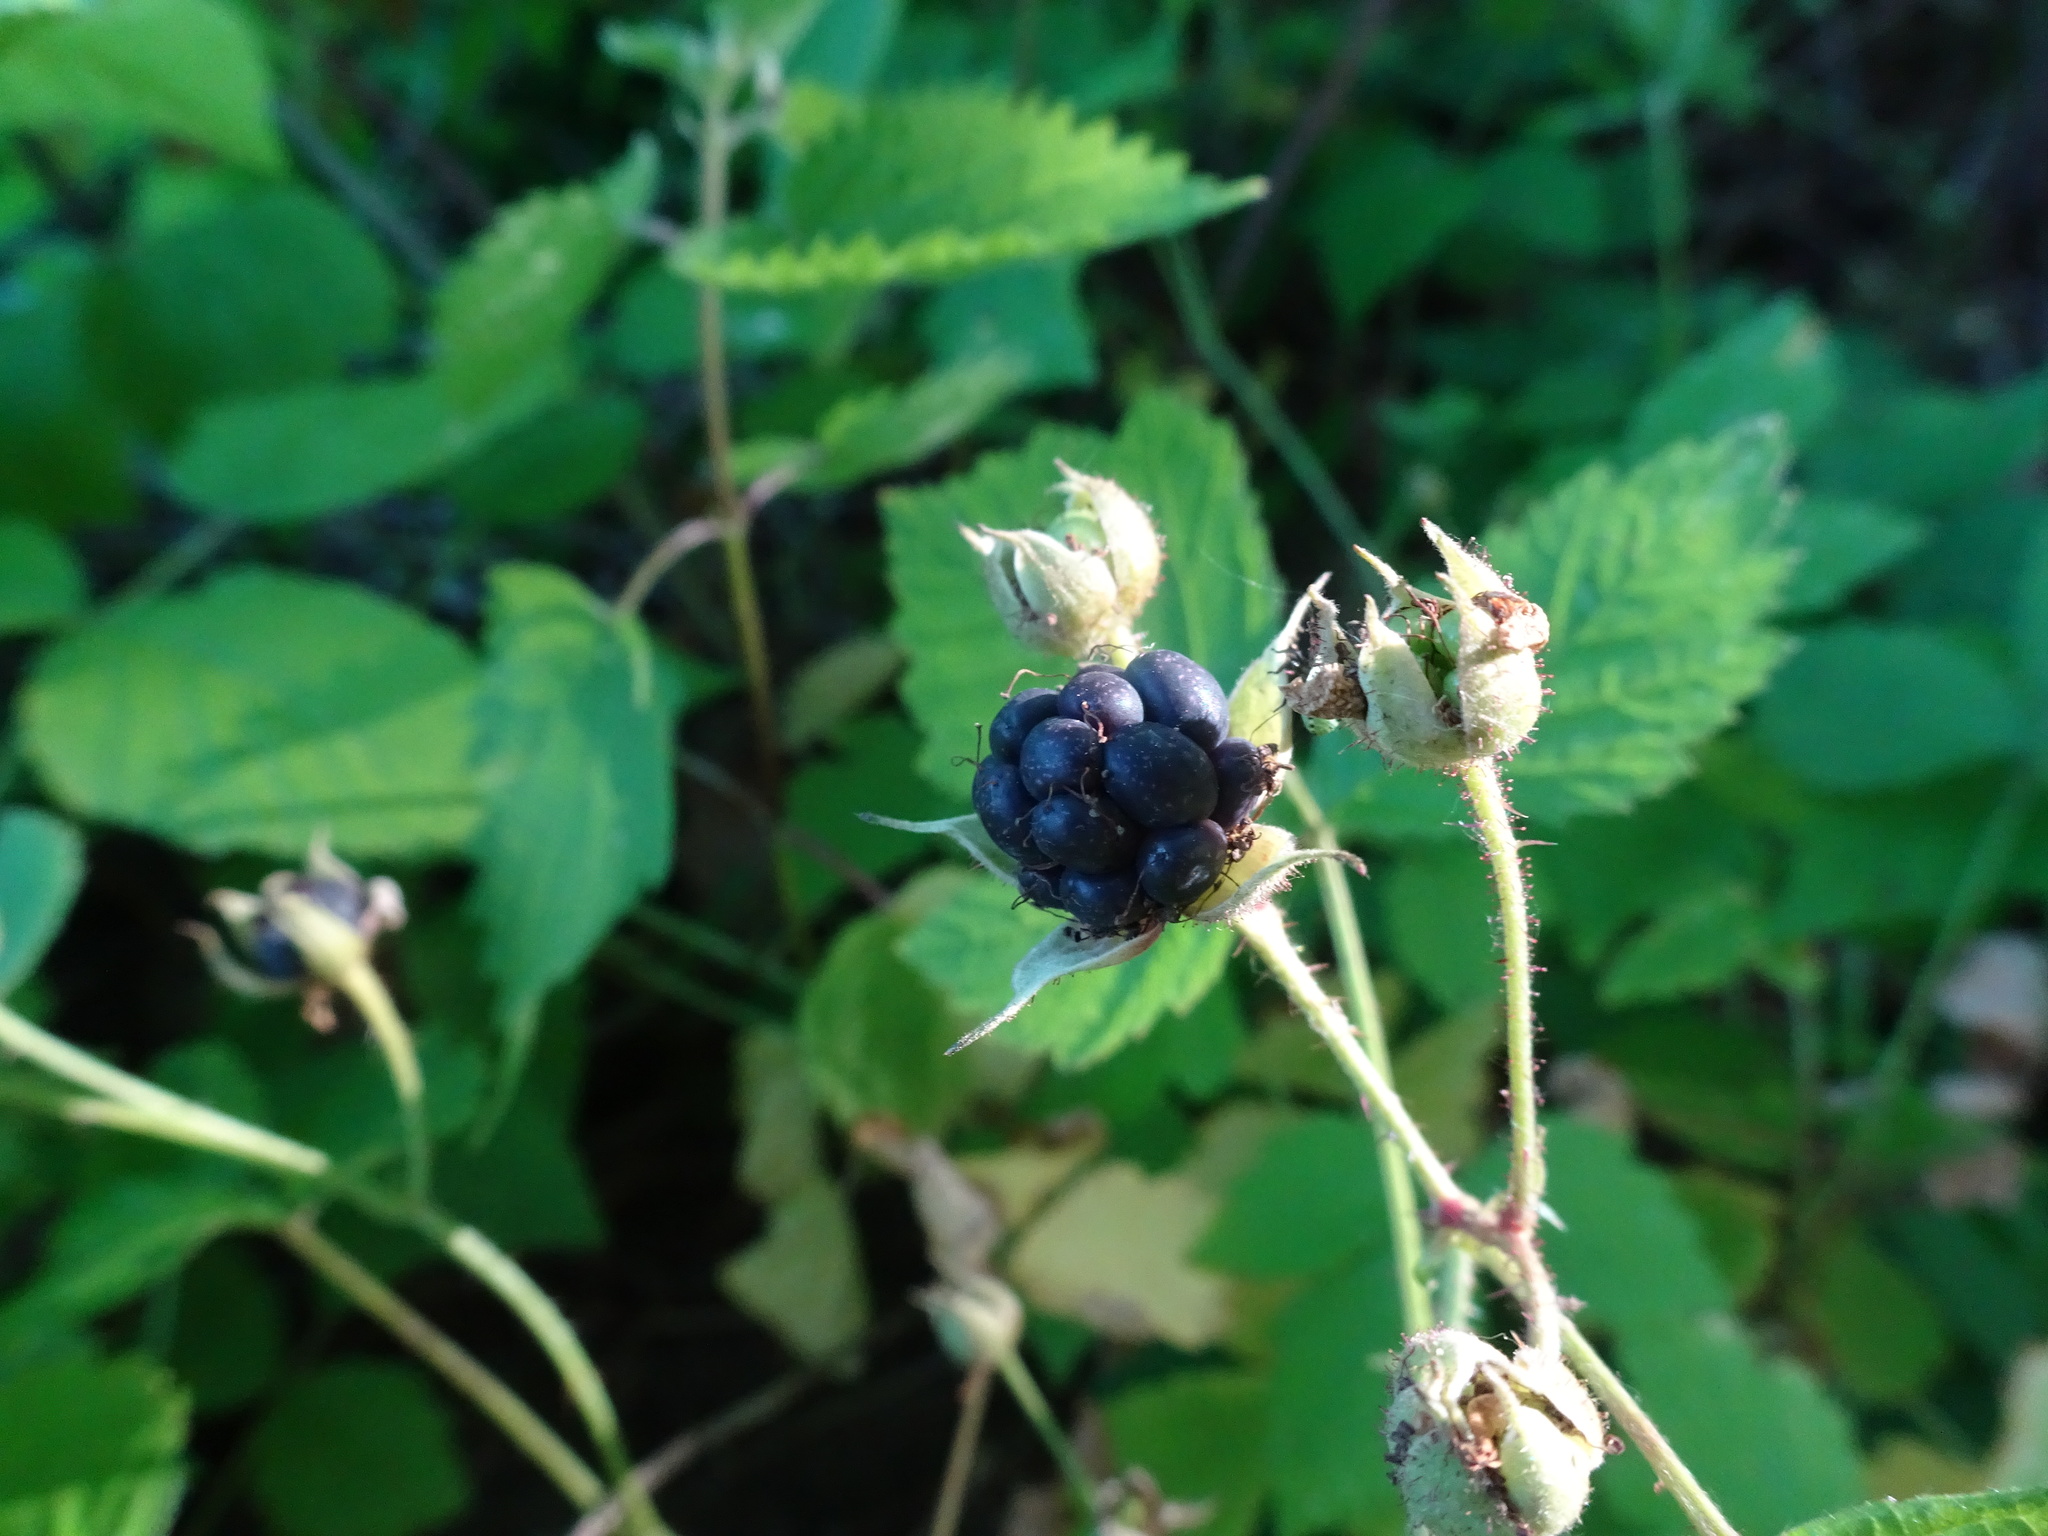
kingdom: Plantae
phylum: Tracheophyta
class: Magnoliopsida
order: Rosales
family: Rosaceae
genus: Rubus
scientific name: Rubus caesius
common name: Dewberry
